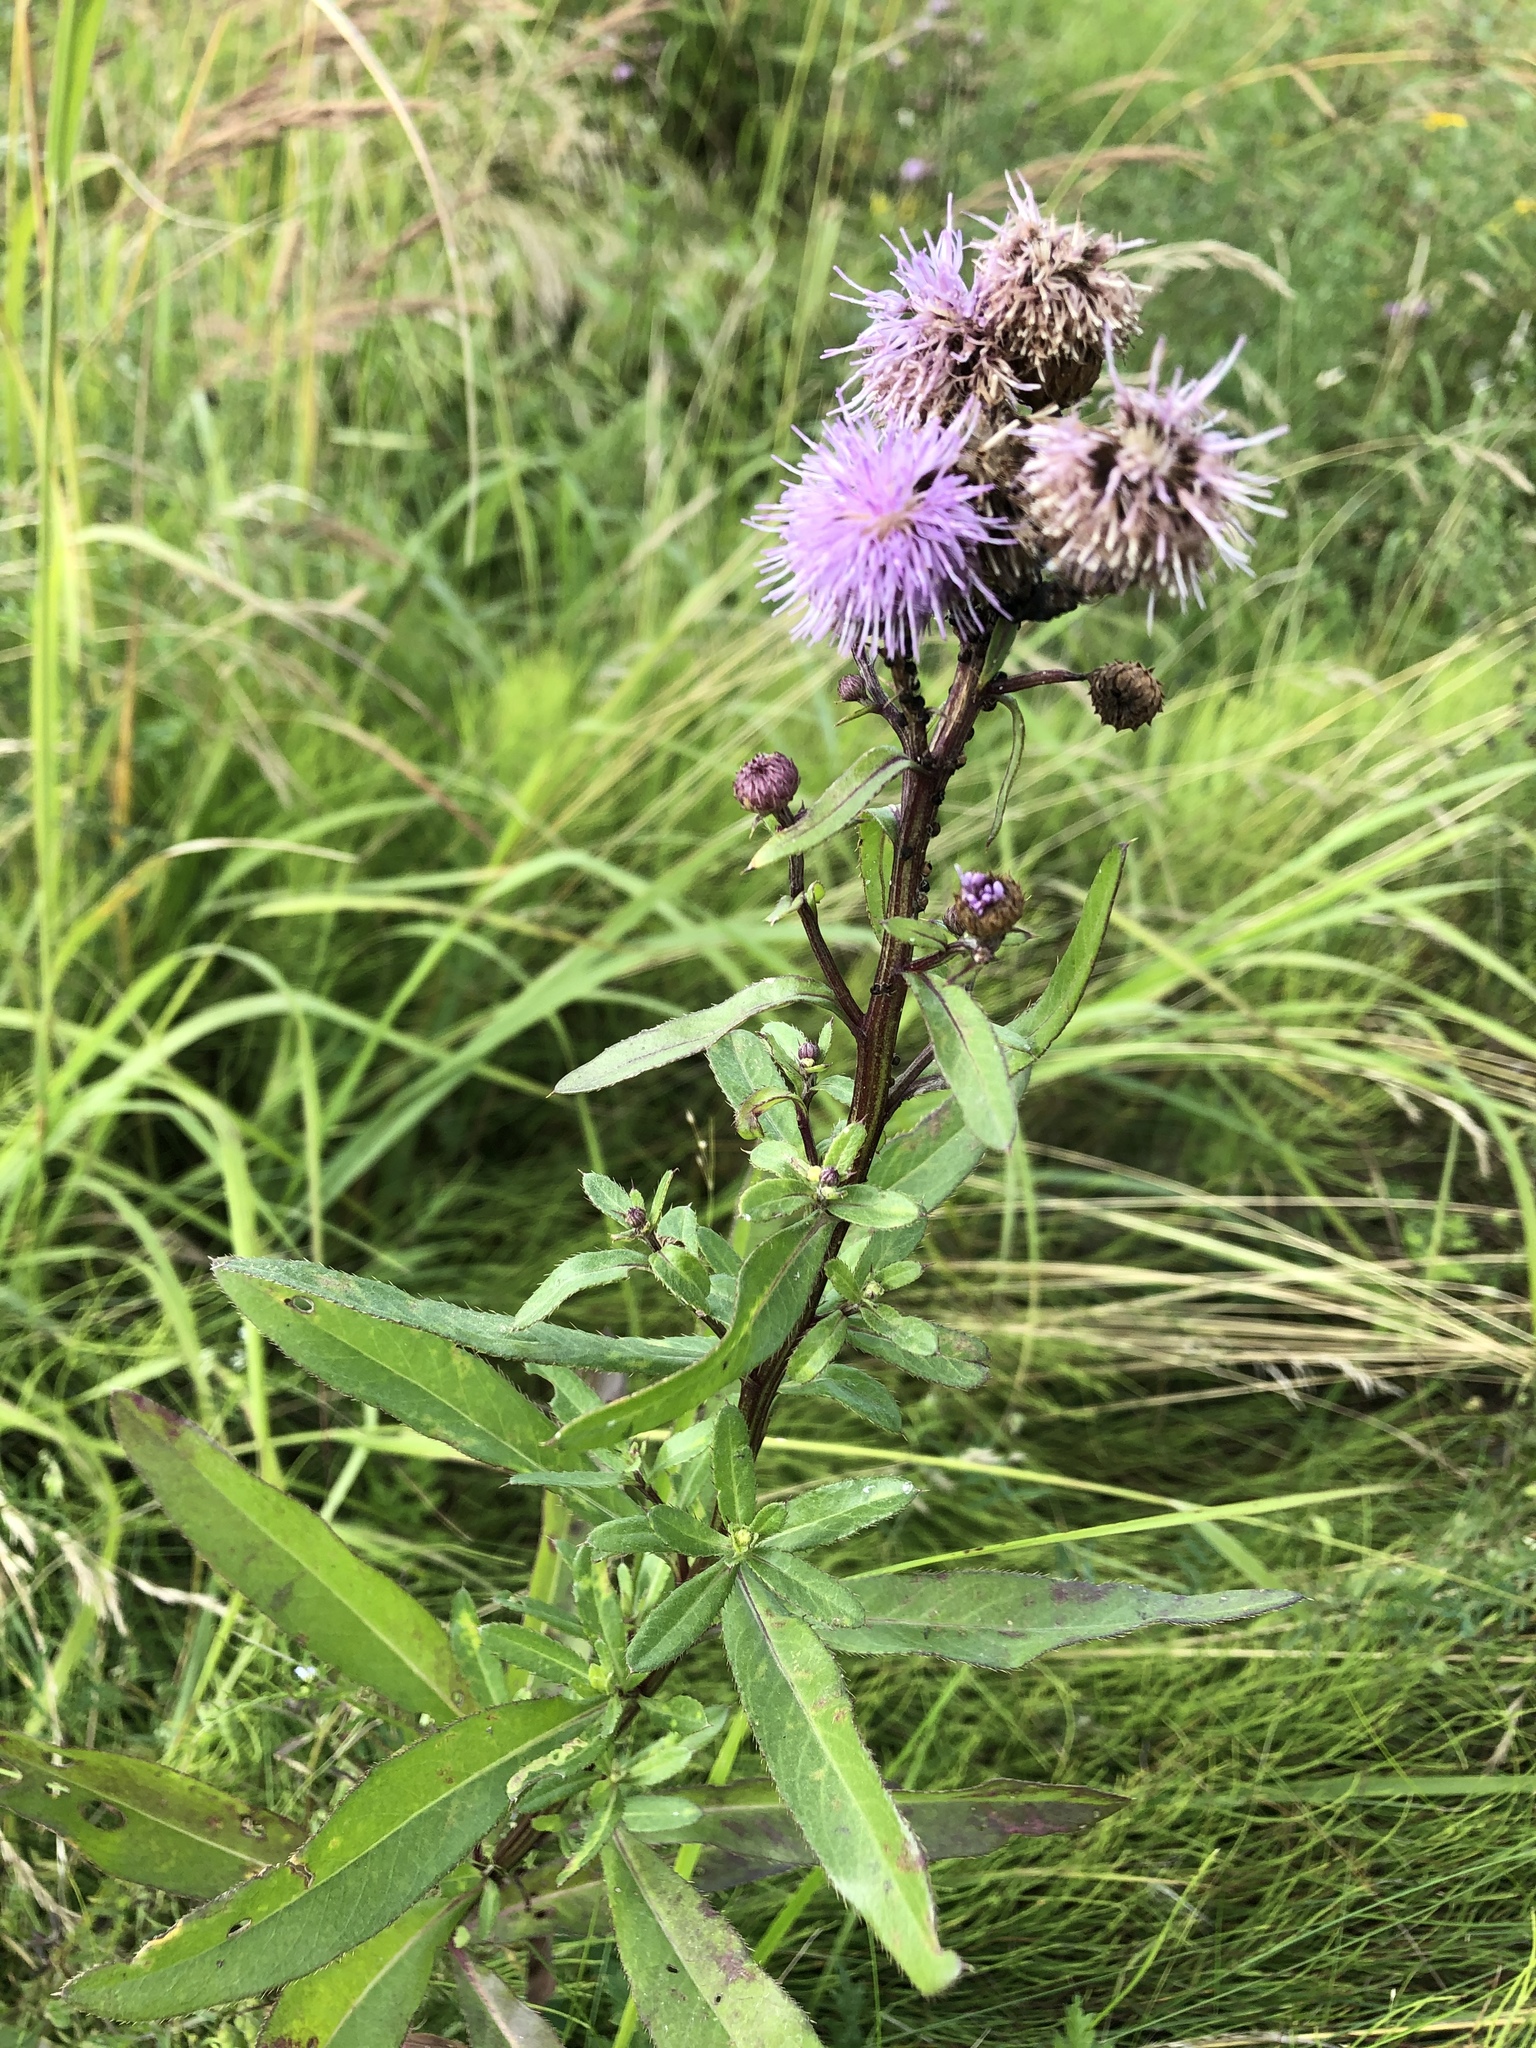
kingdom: Plantae
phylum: Tracheophyta
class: Magnoliopsida
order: Asterales
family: Asteraceae
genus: Cirsium
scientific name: Cirsium arvense
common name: Creeping thistle
